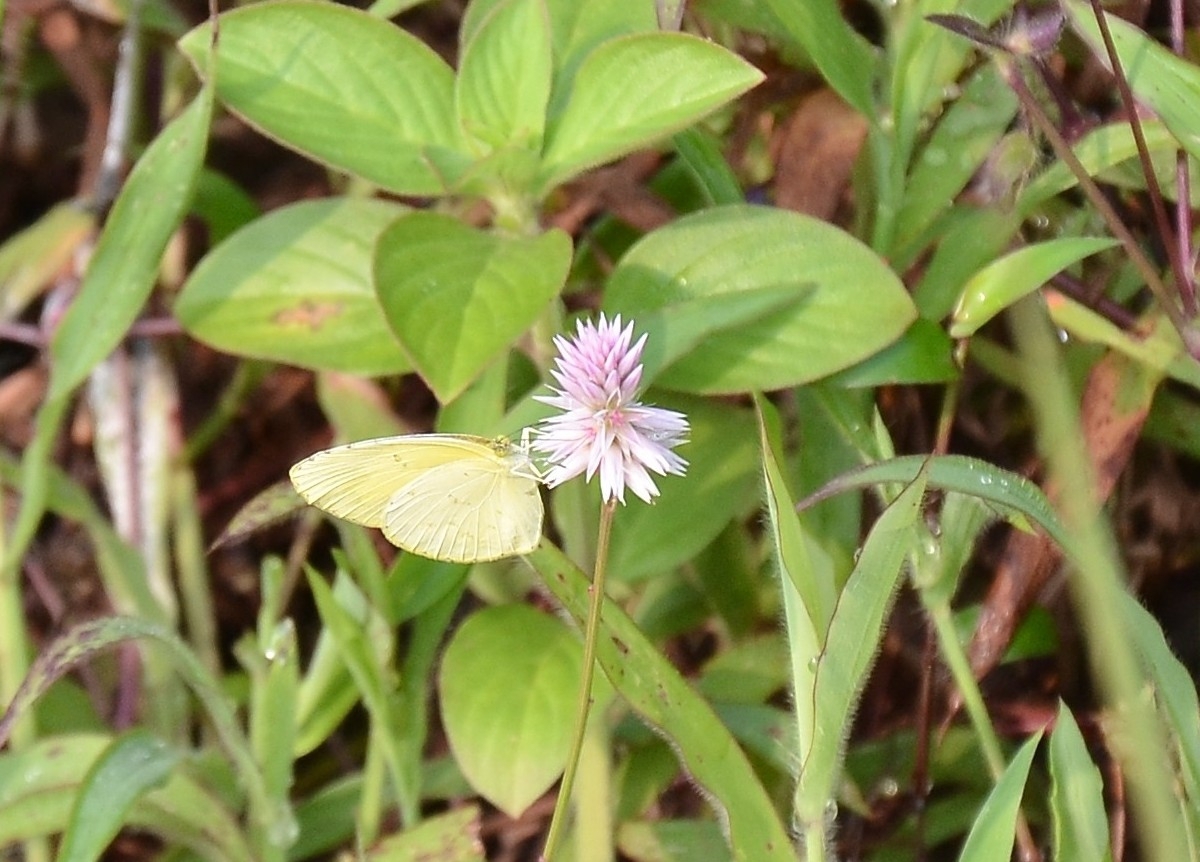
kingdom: Animalia
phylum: Arthropoda
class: Insecta
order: Lepidoptera
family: Pieridae
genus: Eurema
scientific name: Eurema hecabe
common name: Pale grass yellow
